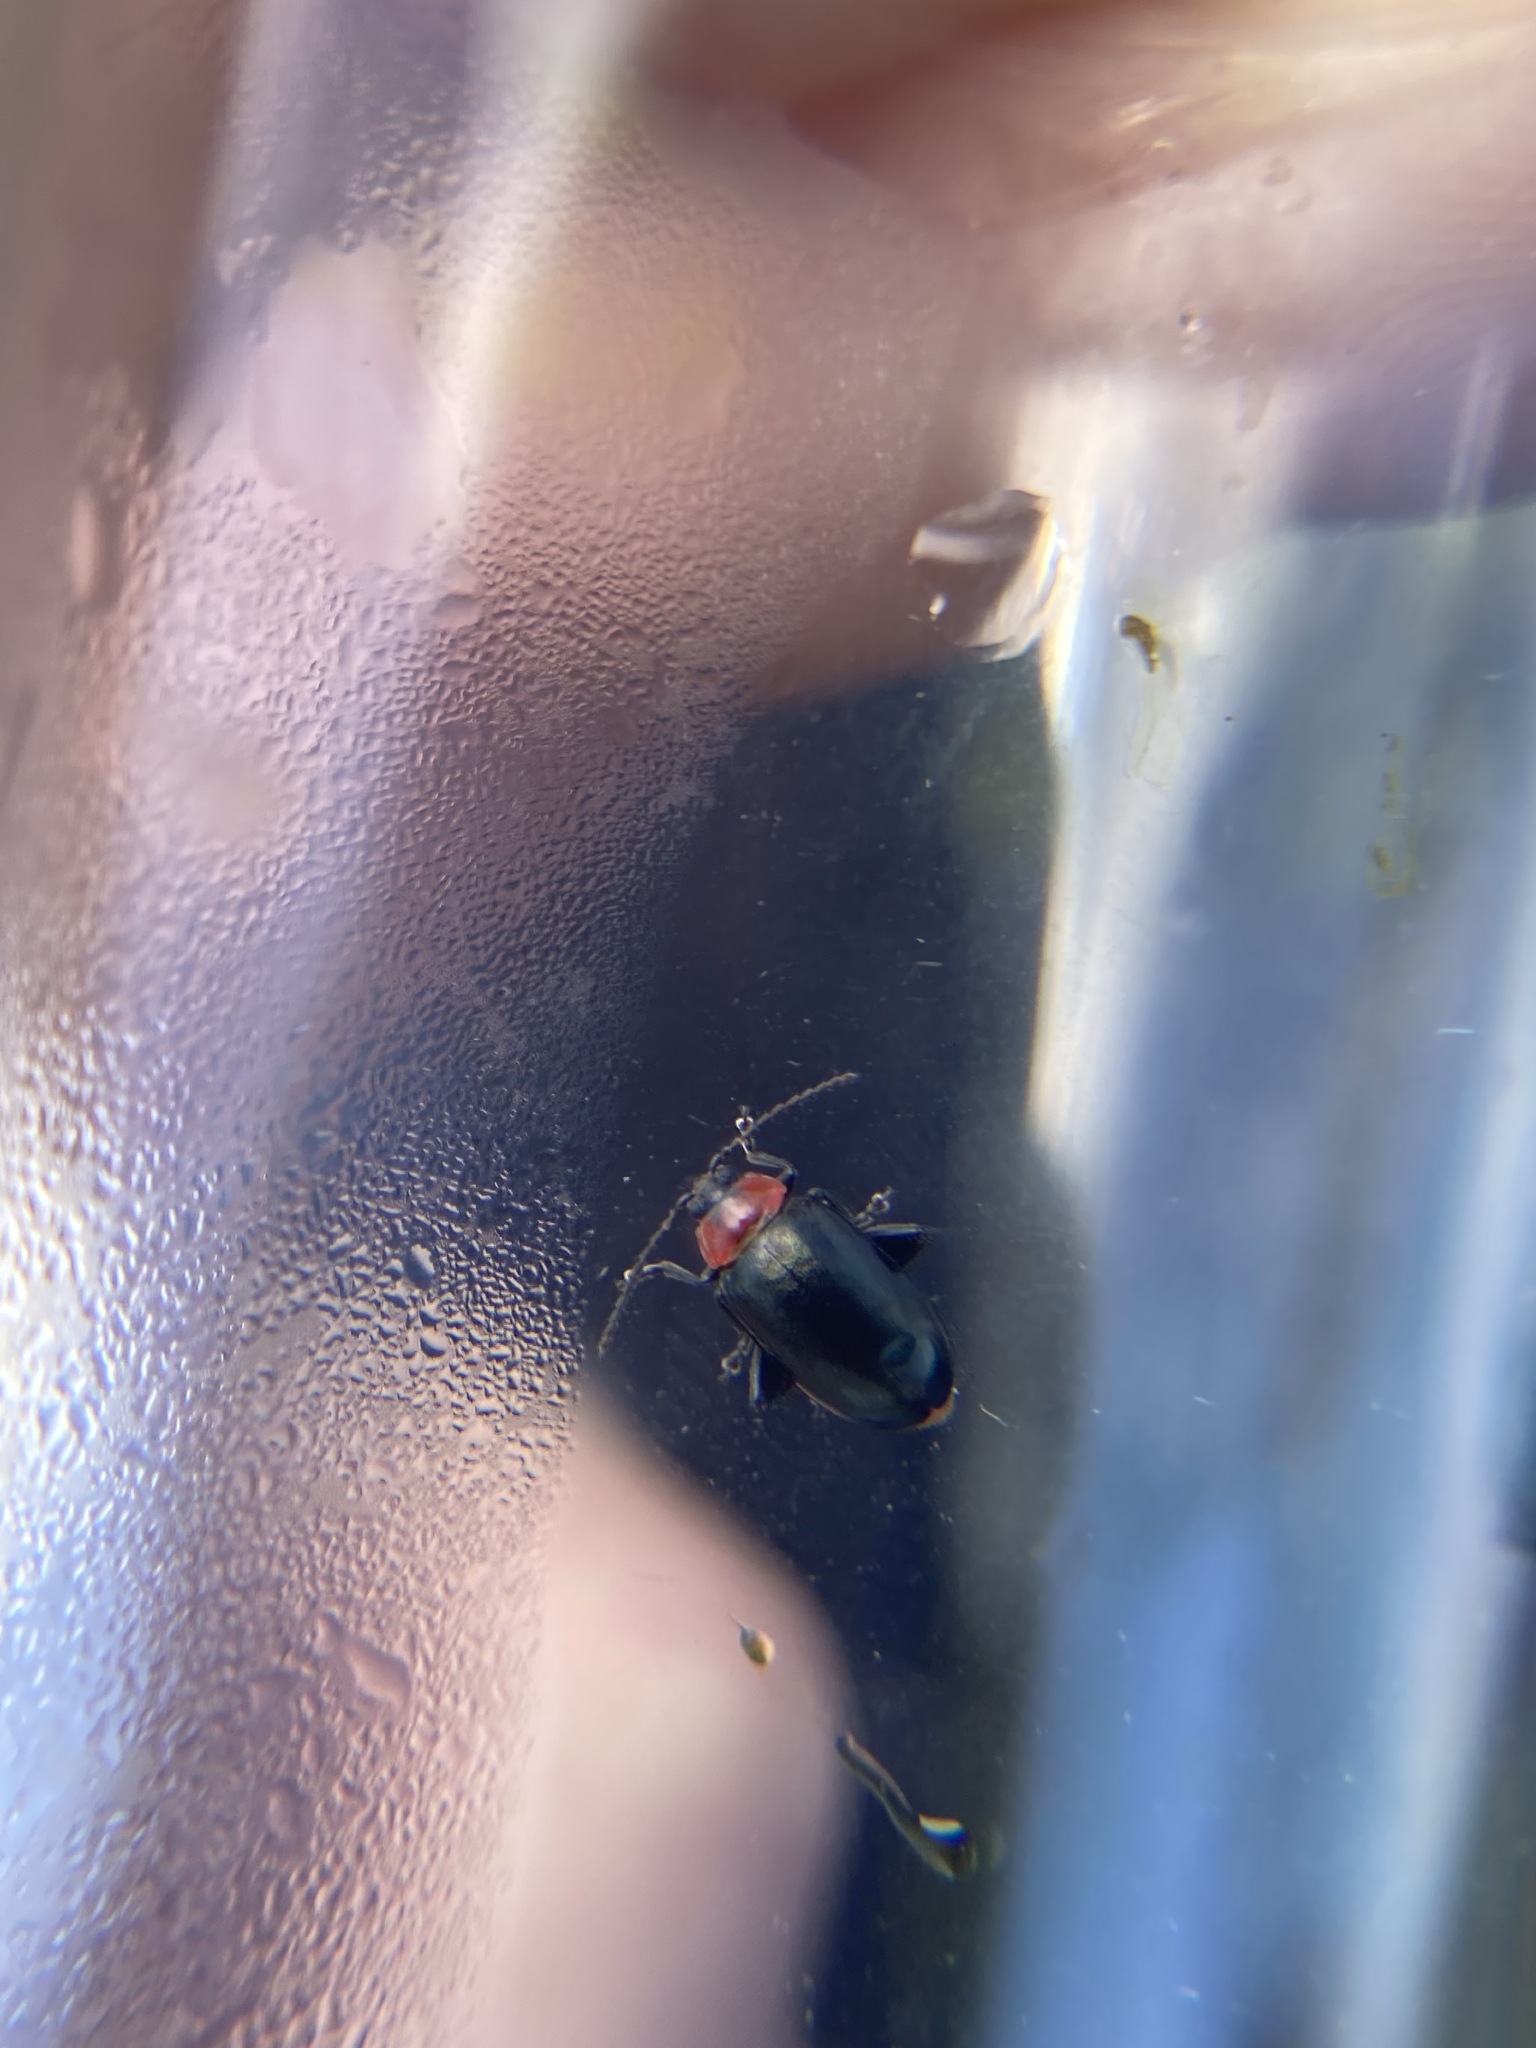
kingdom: Animalia
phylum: Arthropoda
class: Insecta
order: Coleoptera
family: Chrysomelidae
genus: Disonycha
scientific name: Disonycha xanthomelas
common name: Spinach flea beetle
